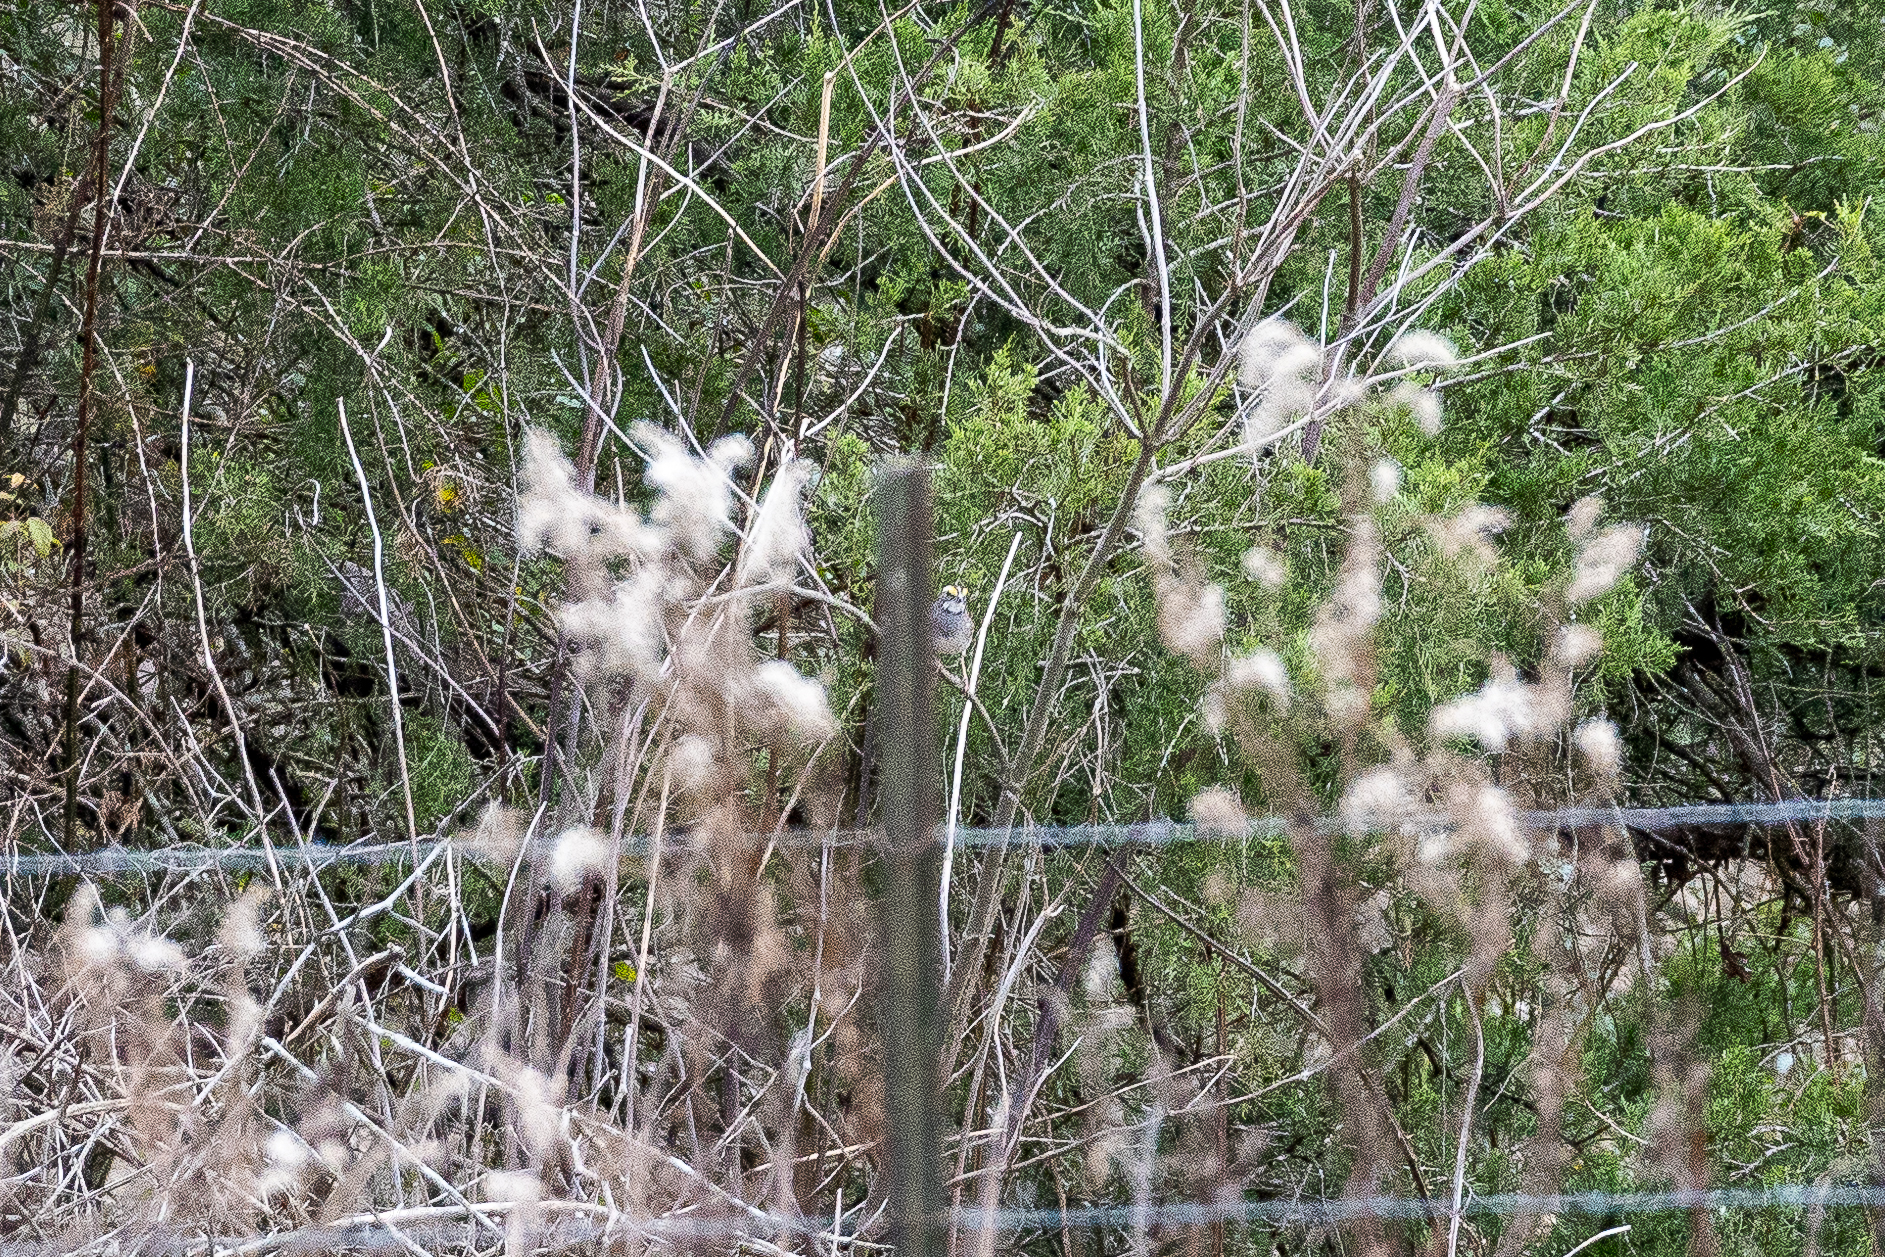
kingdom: Animalia
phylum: Chordata
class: Aves
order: Passeriformes
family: Passerellidae
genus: Zonotrichia
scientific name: Zonotrichia albicollis
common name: White-throated sparrow
